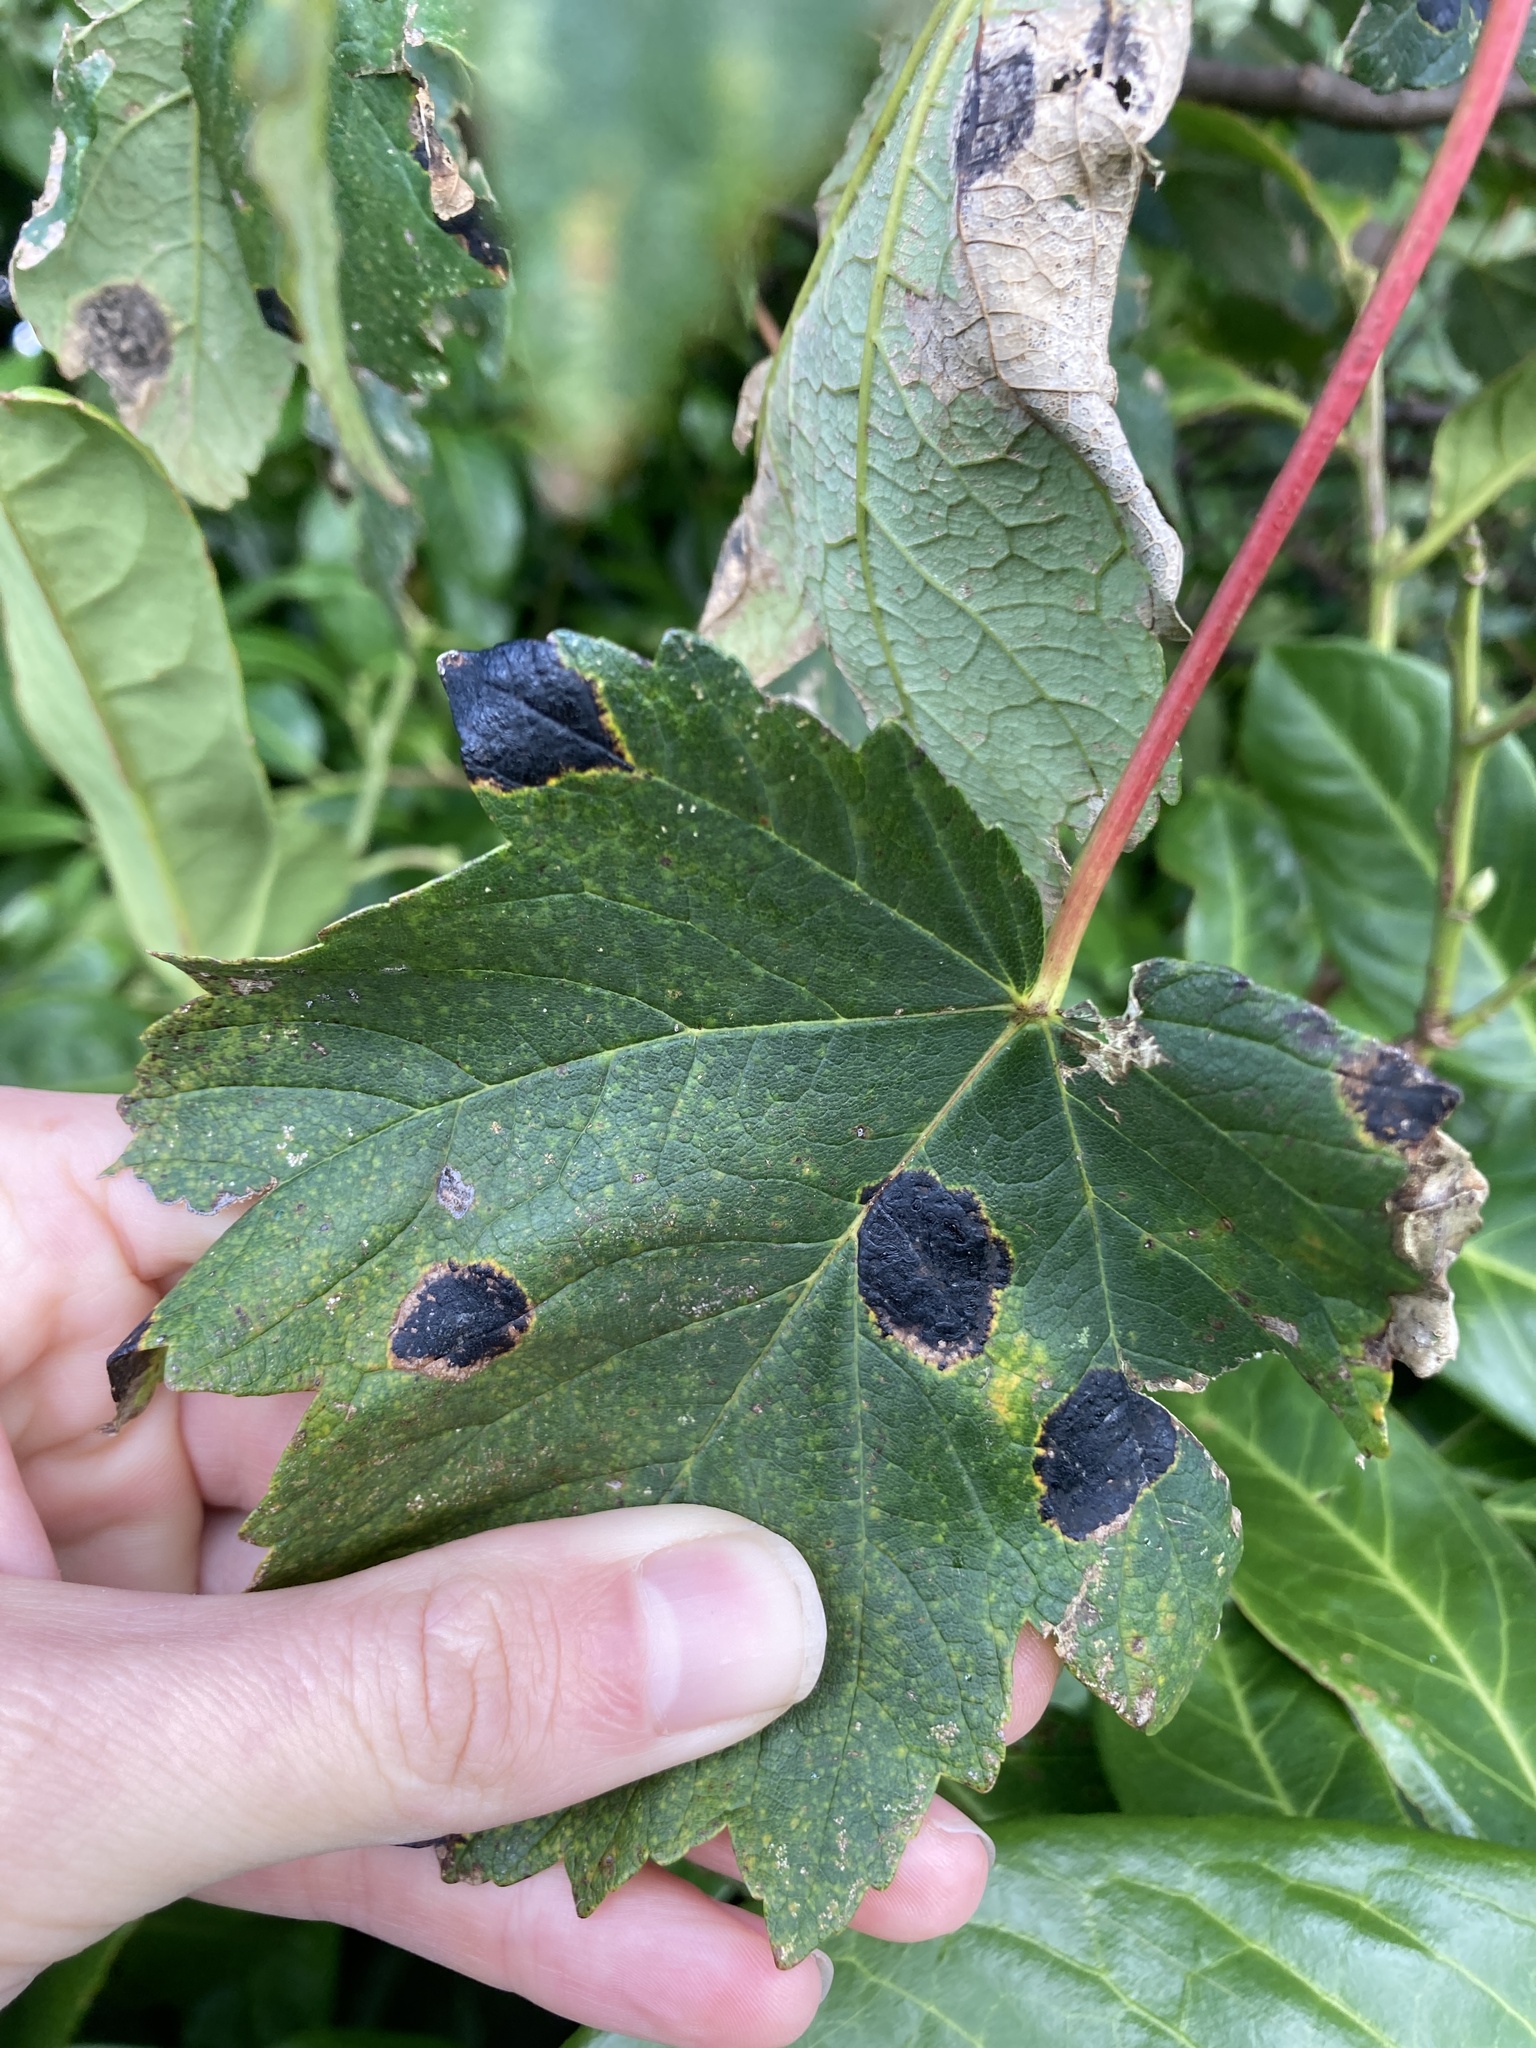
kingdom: Fungi
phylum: Ascomycota
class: Leotiomycetes
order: Rhytismatales
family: Rhytismataceae
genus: Rhytisma
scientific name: Rhytisma acerinum
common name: European tar spot
